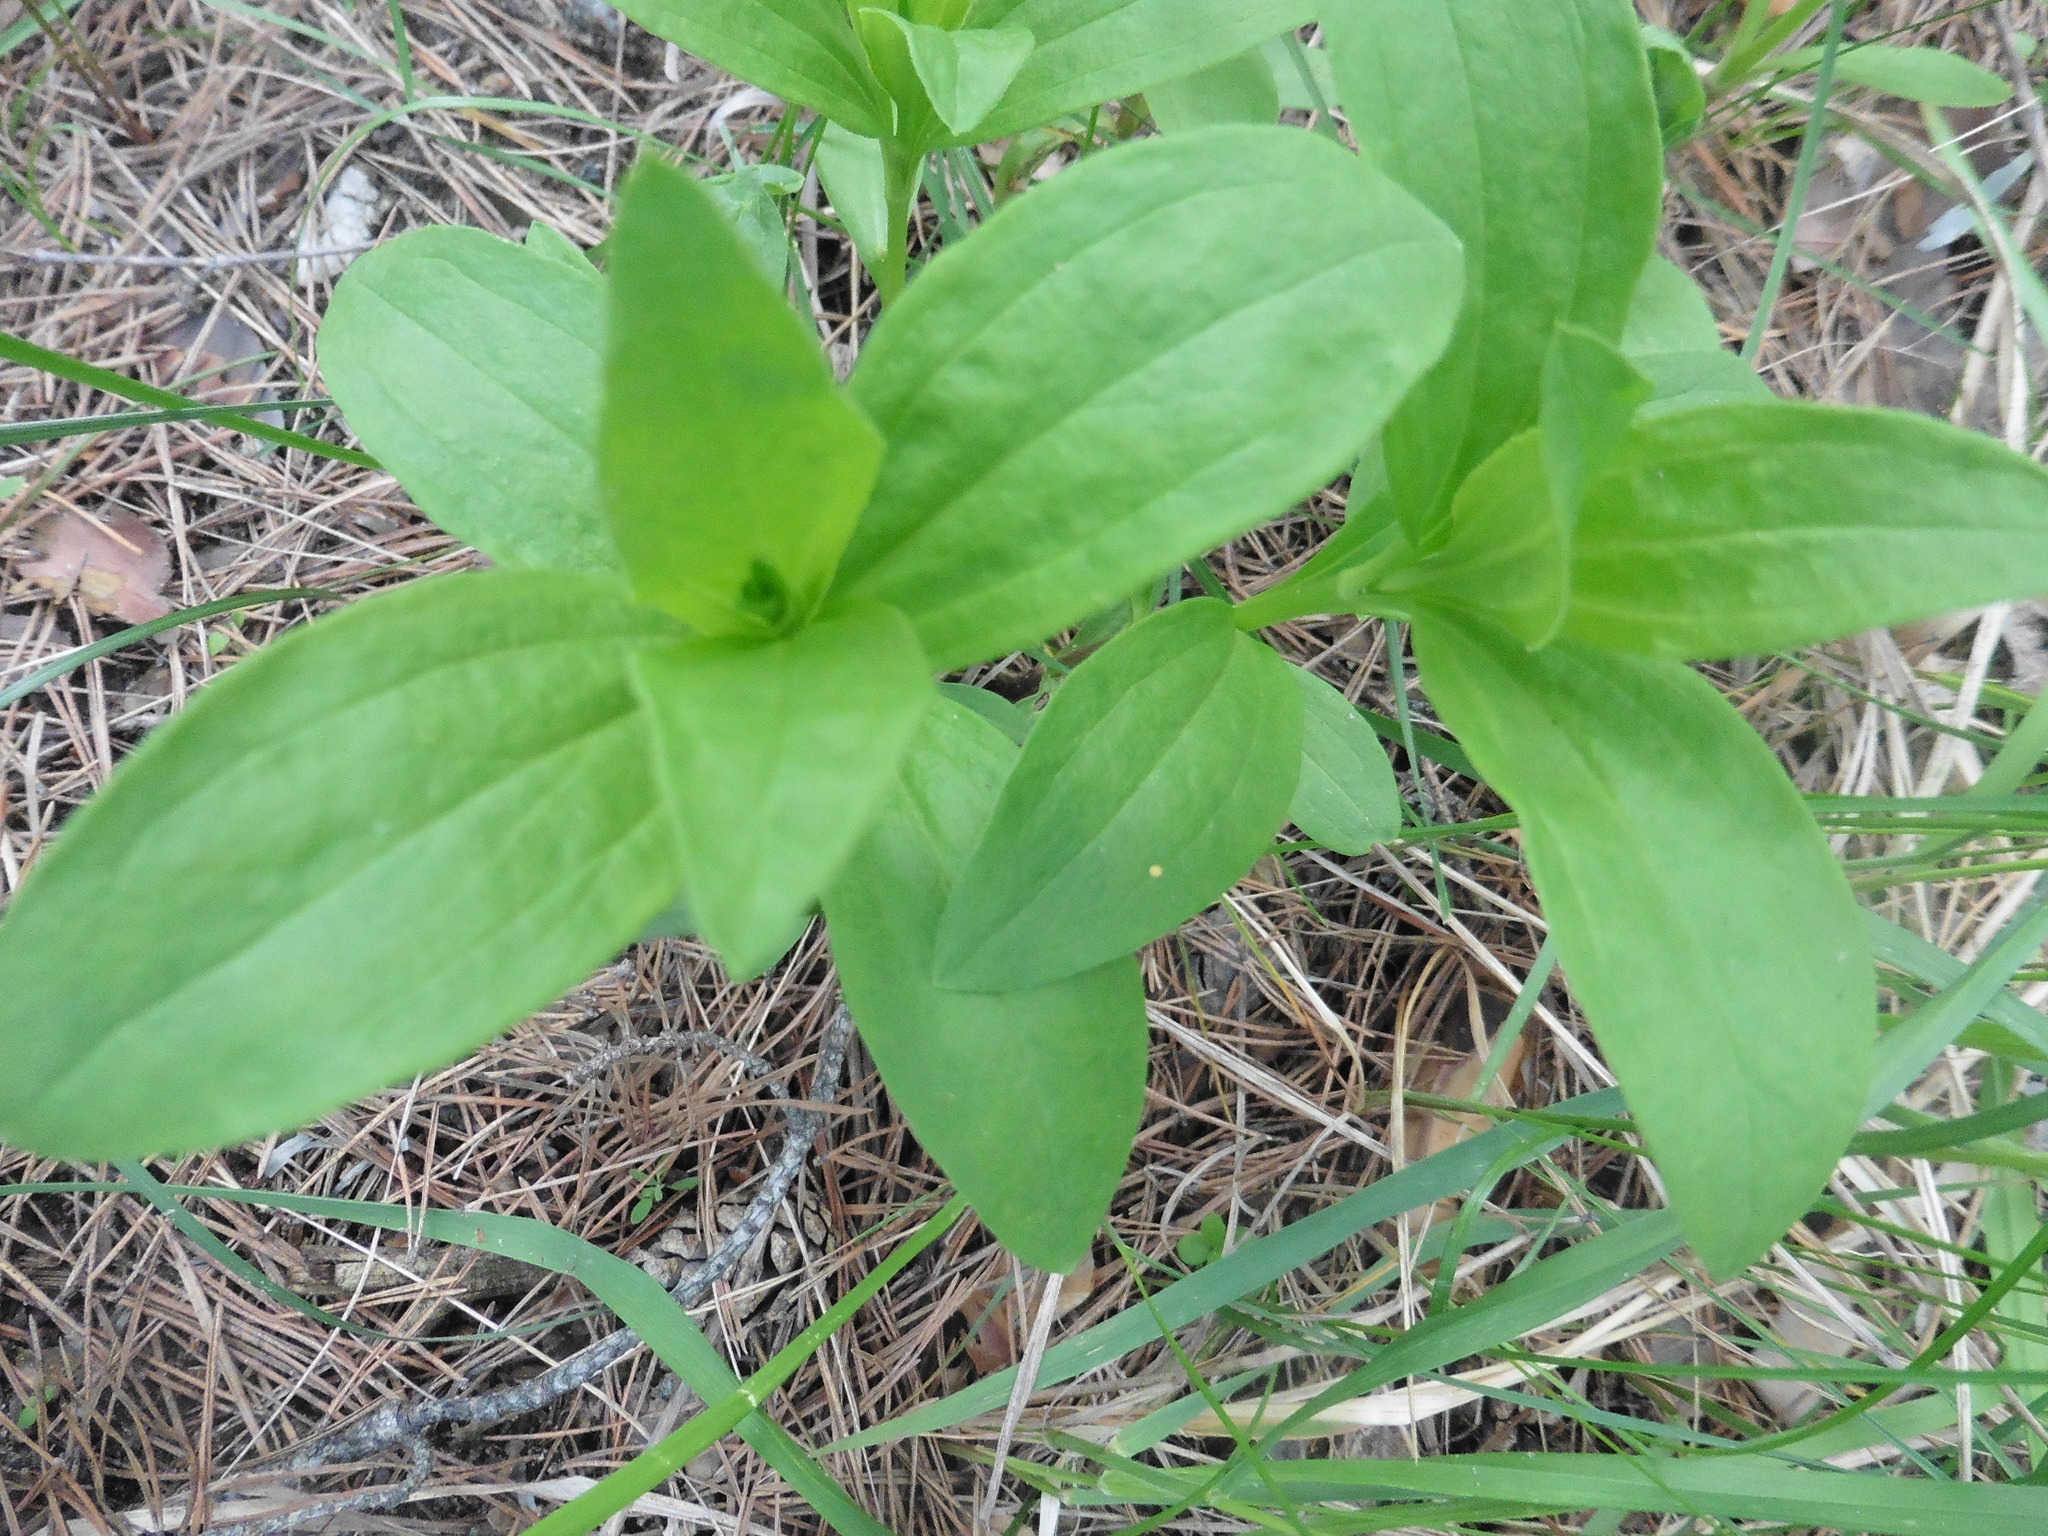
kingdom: Plantae
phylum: Tracheophyta
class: Magnoliopsida
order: Caryophyllales
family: Caryophyllaceae
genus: Saponaria
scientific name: Saponaria officinalis
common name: Soapwort
